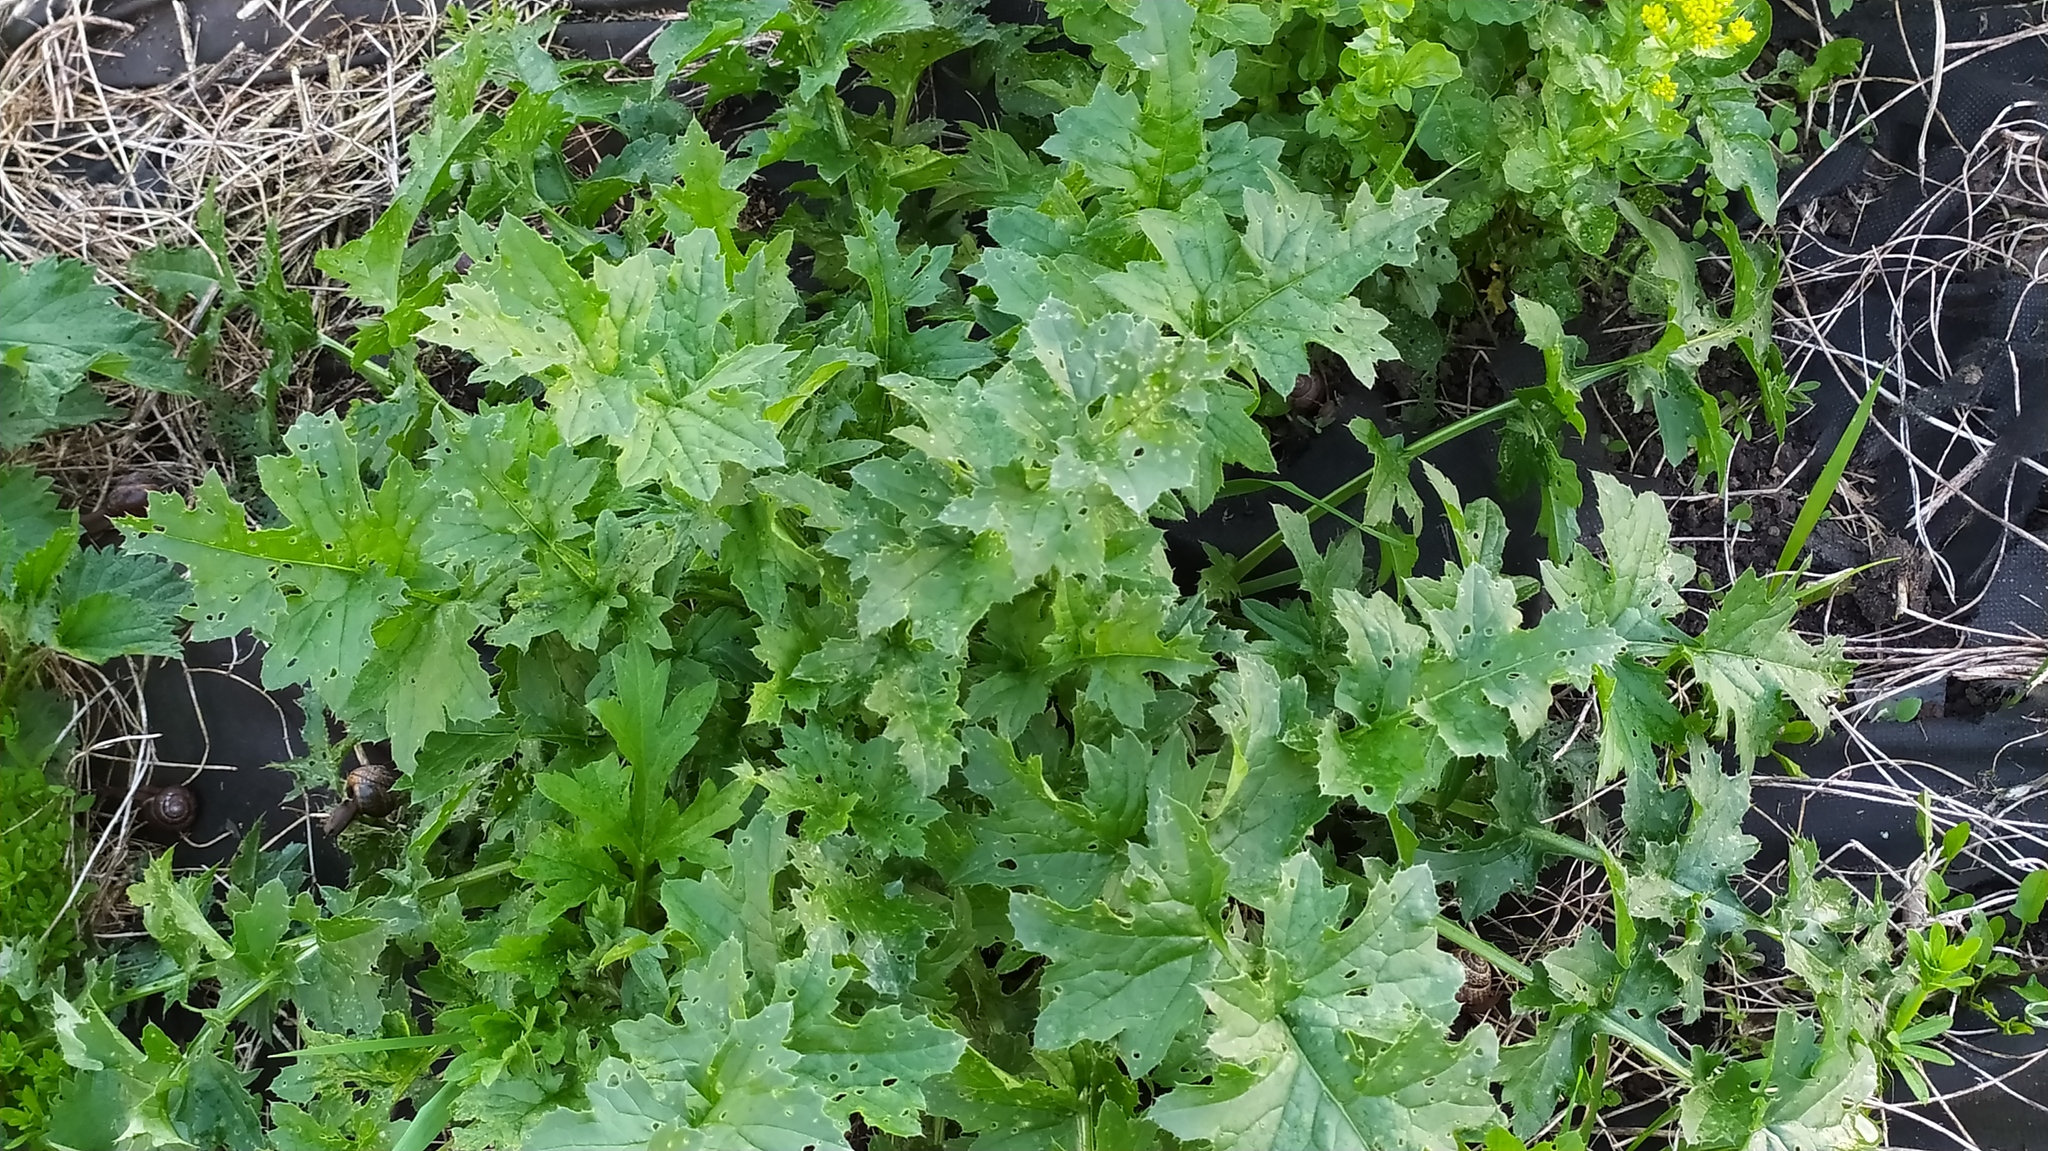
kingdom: Plantae
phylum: Tracheophyta
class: Magnoliopsida
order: Asterales
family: Asteraceae
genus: Carduus
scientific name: Carduus crispus
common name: Welted thistle
